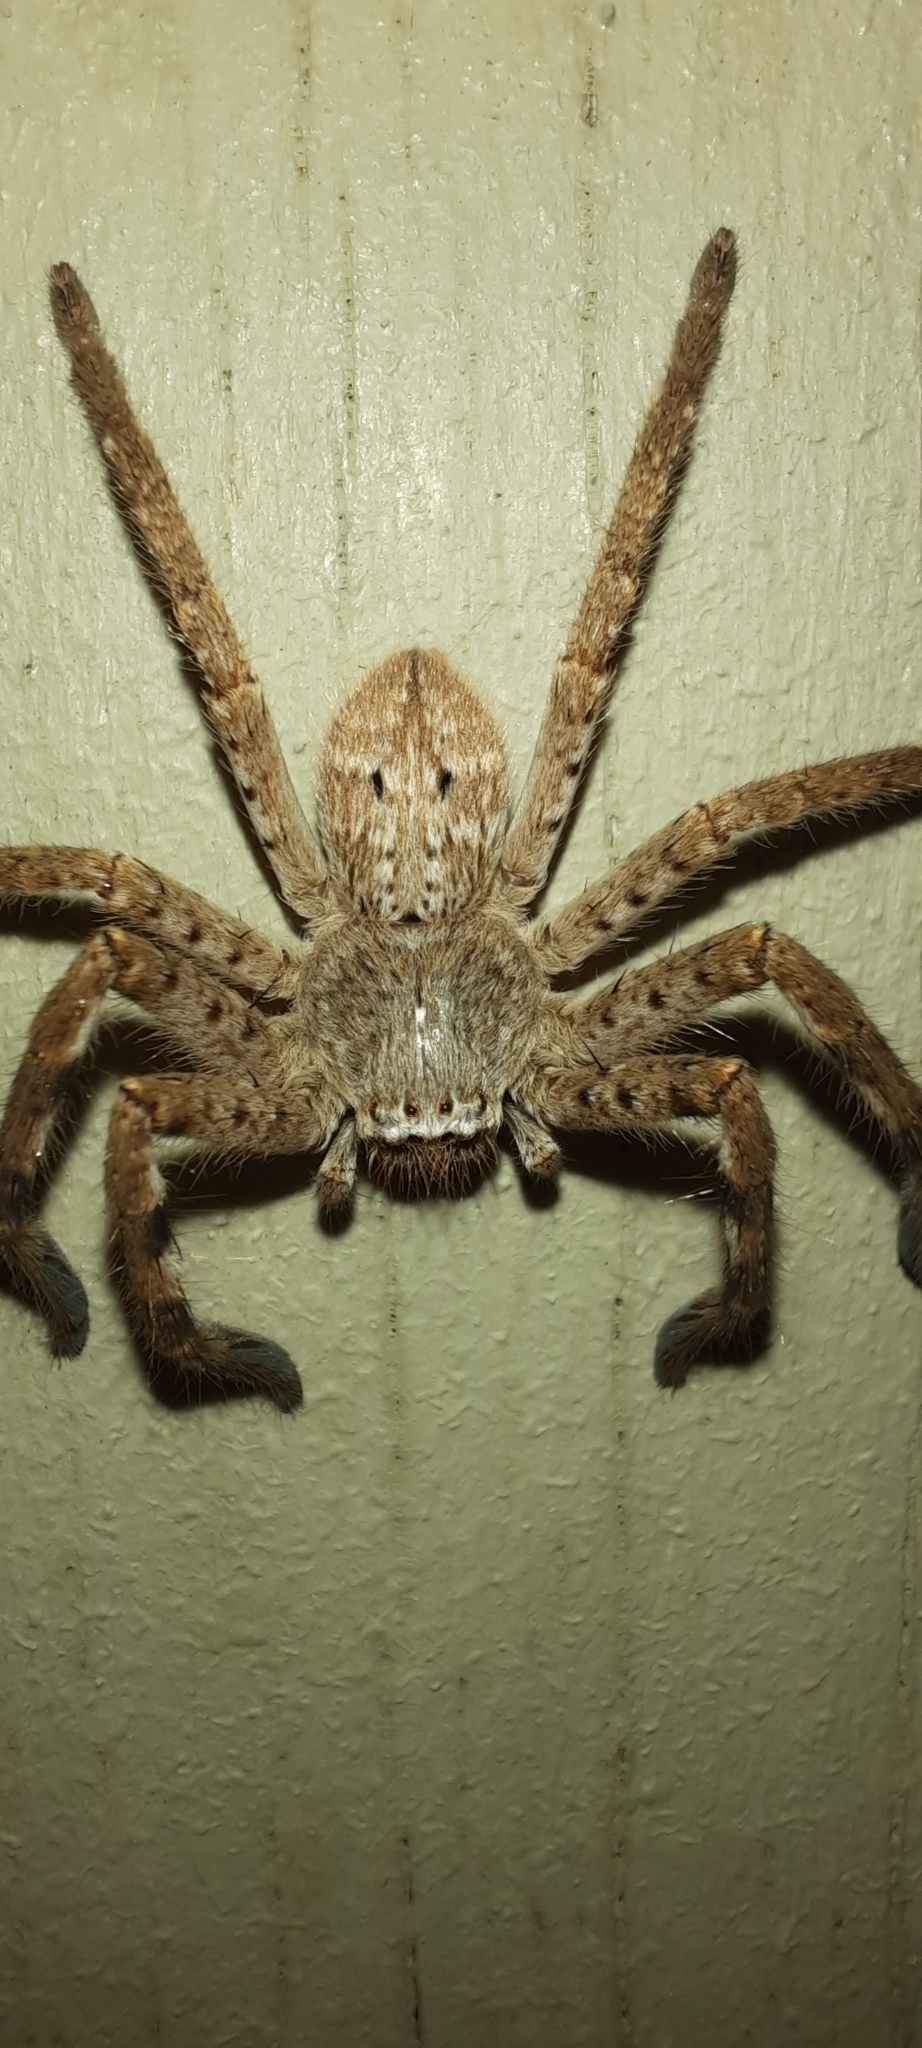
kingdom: Animalia
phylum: Arthropoda
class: Arachnida
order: Araneae
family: Sparassidae
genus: Isopedella
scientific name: Isopedella victorialis
